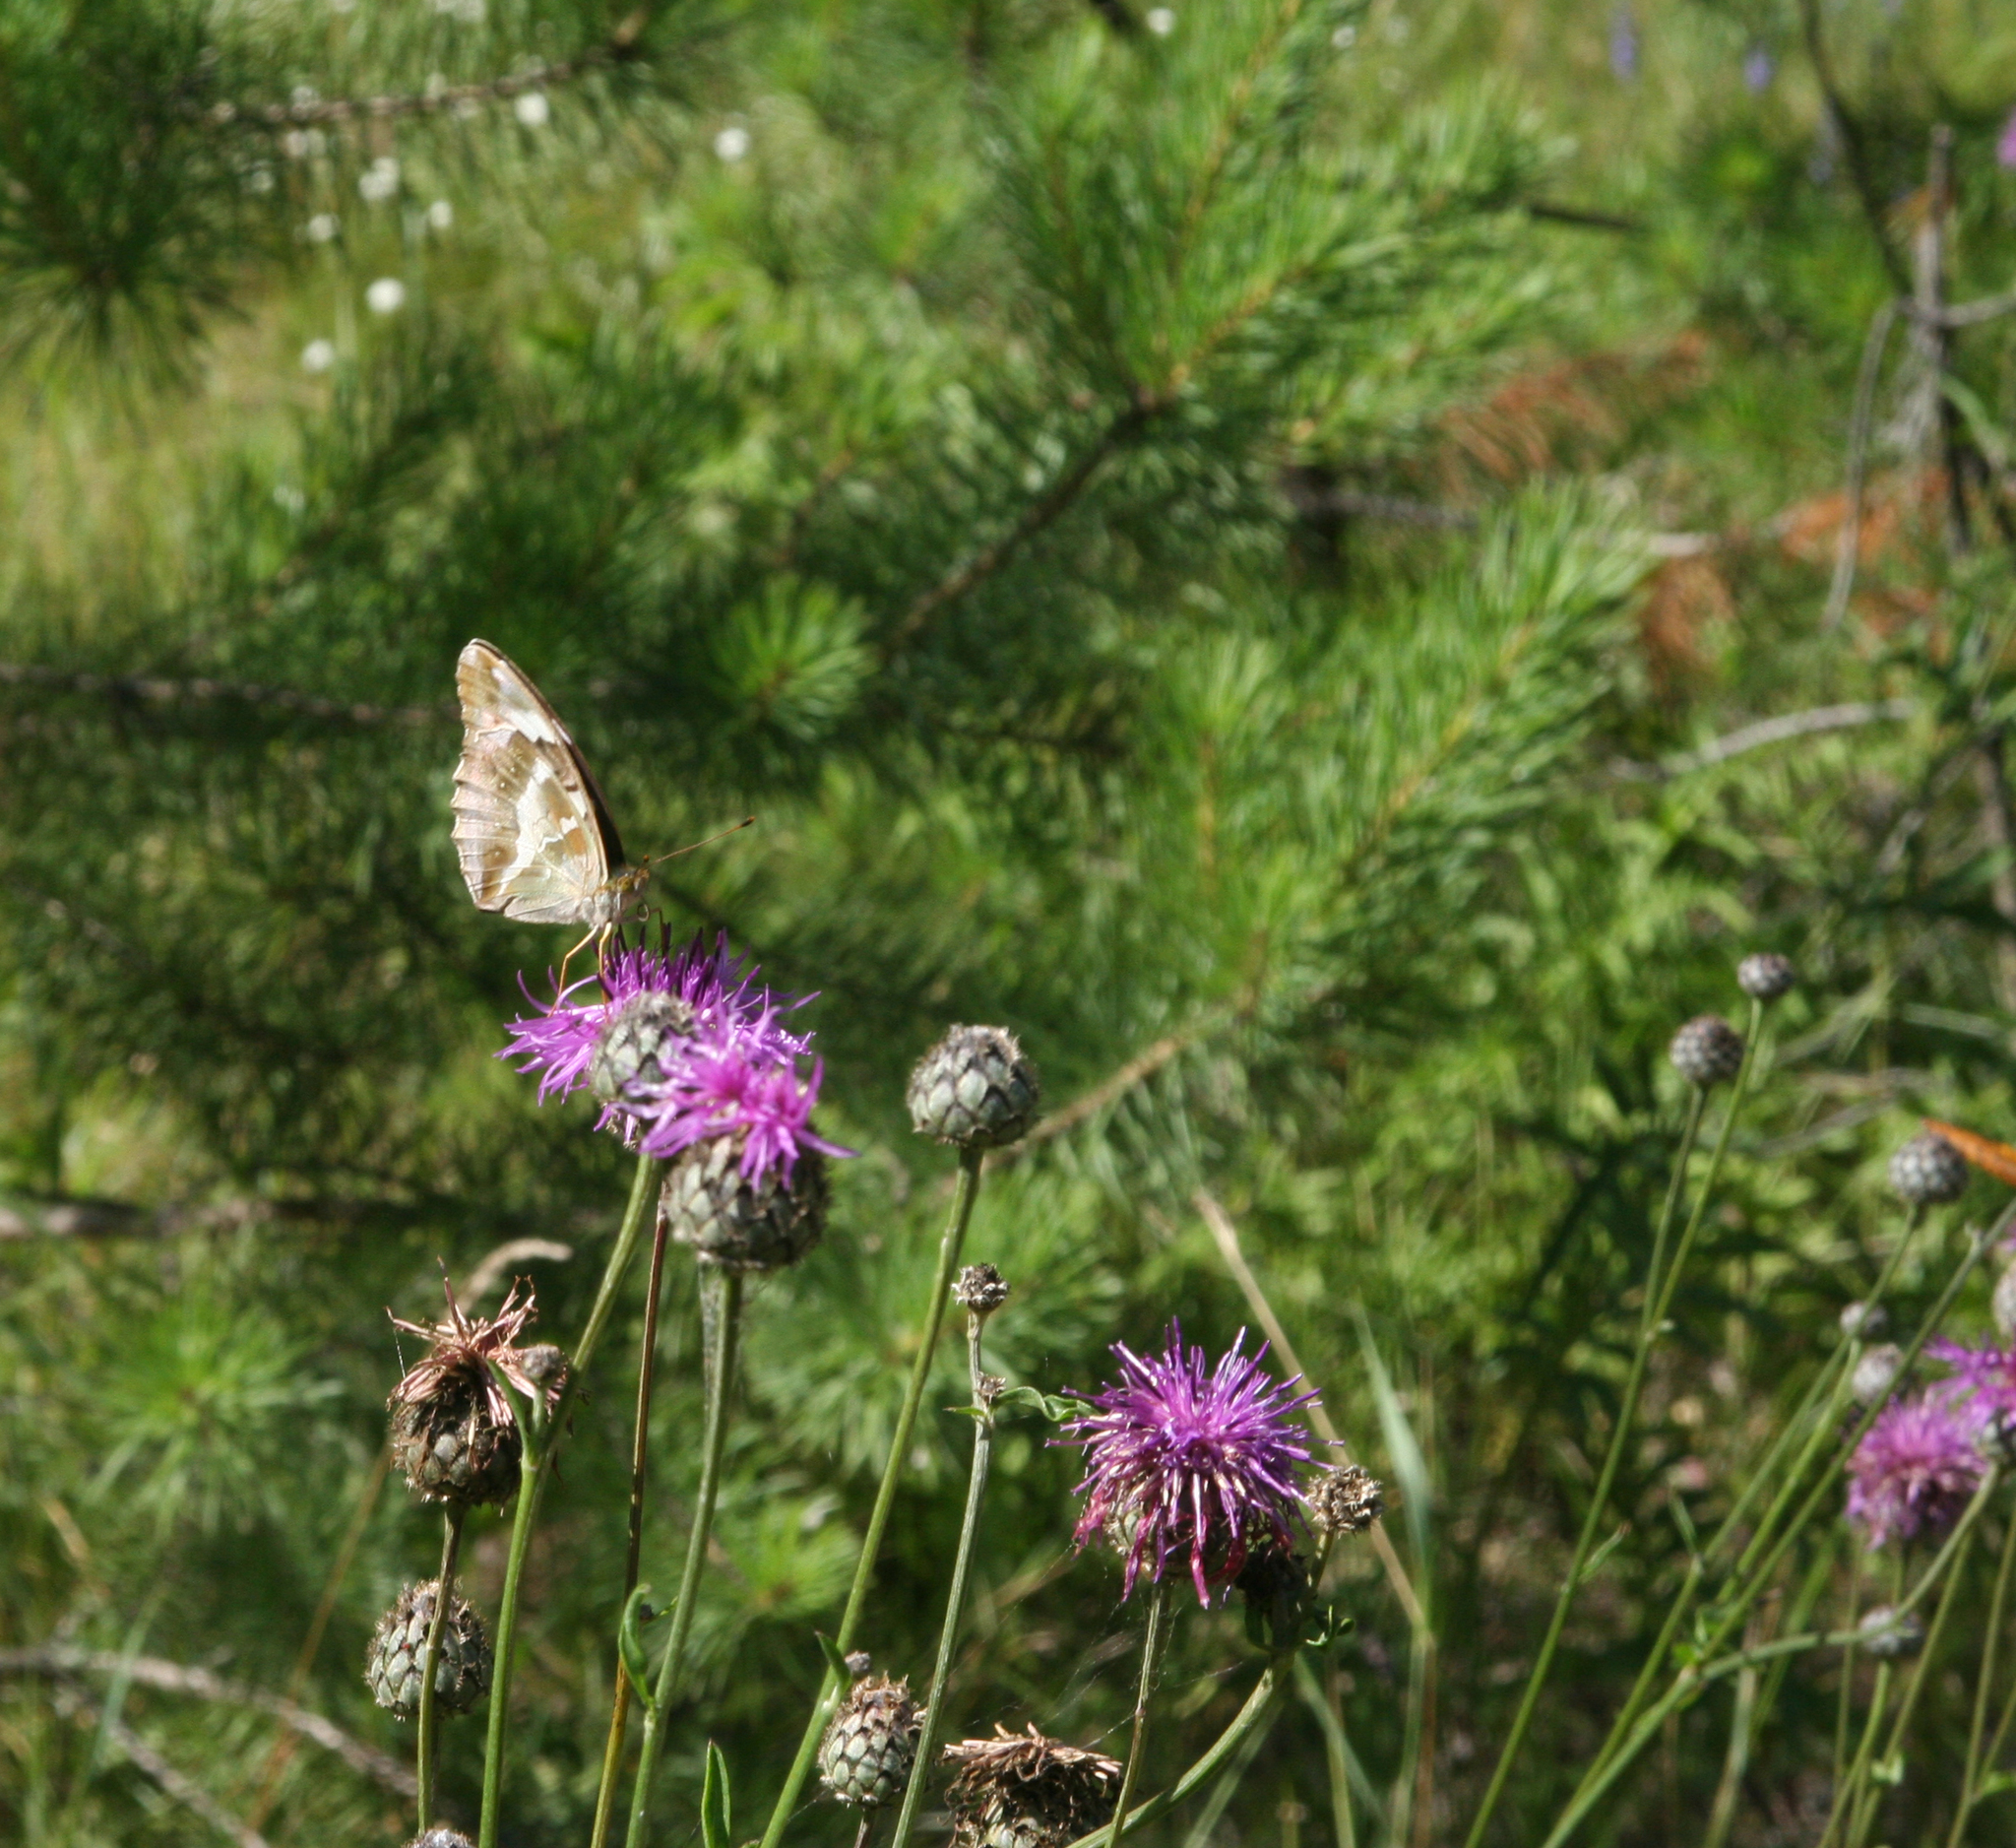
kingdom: Animalia
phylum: Arthropoda
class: Insecta
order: Lepidoptera
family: Nymphalidae
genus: Damora
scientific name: Damora sagana
